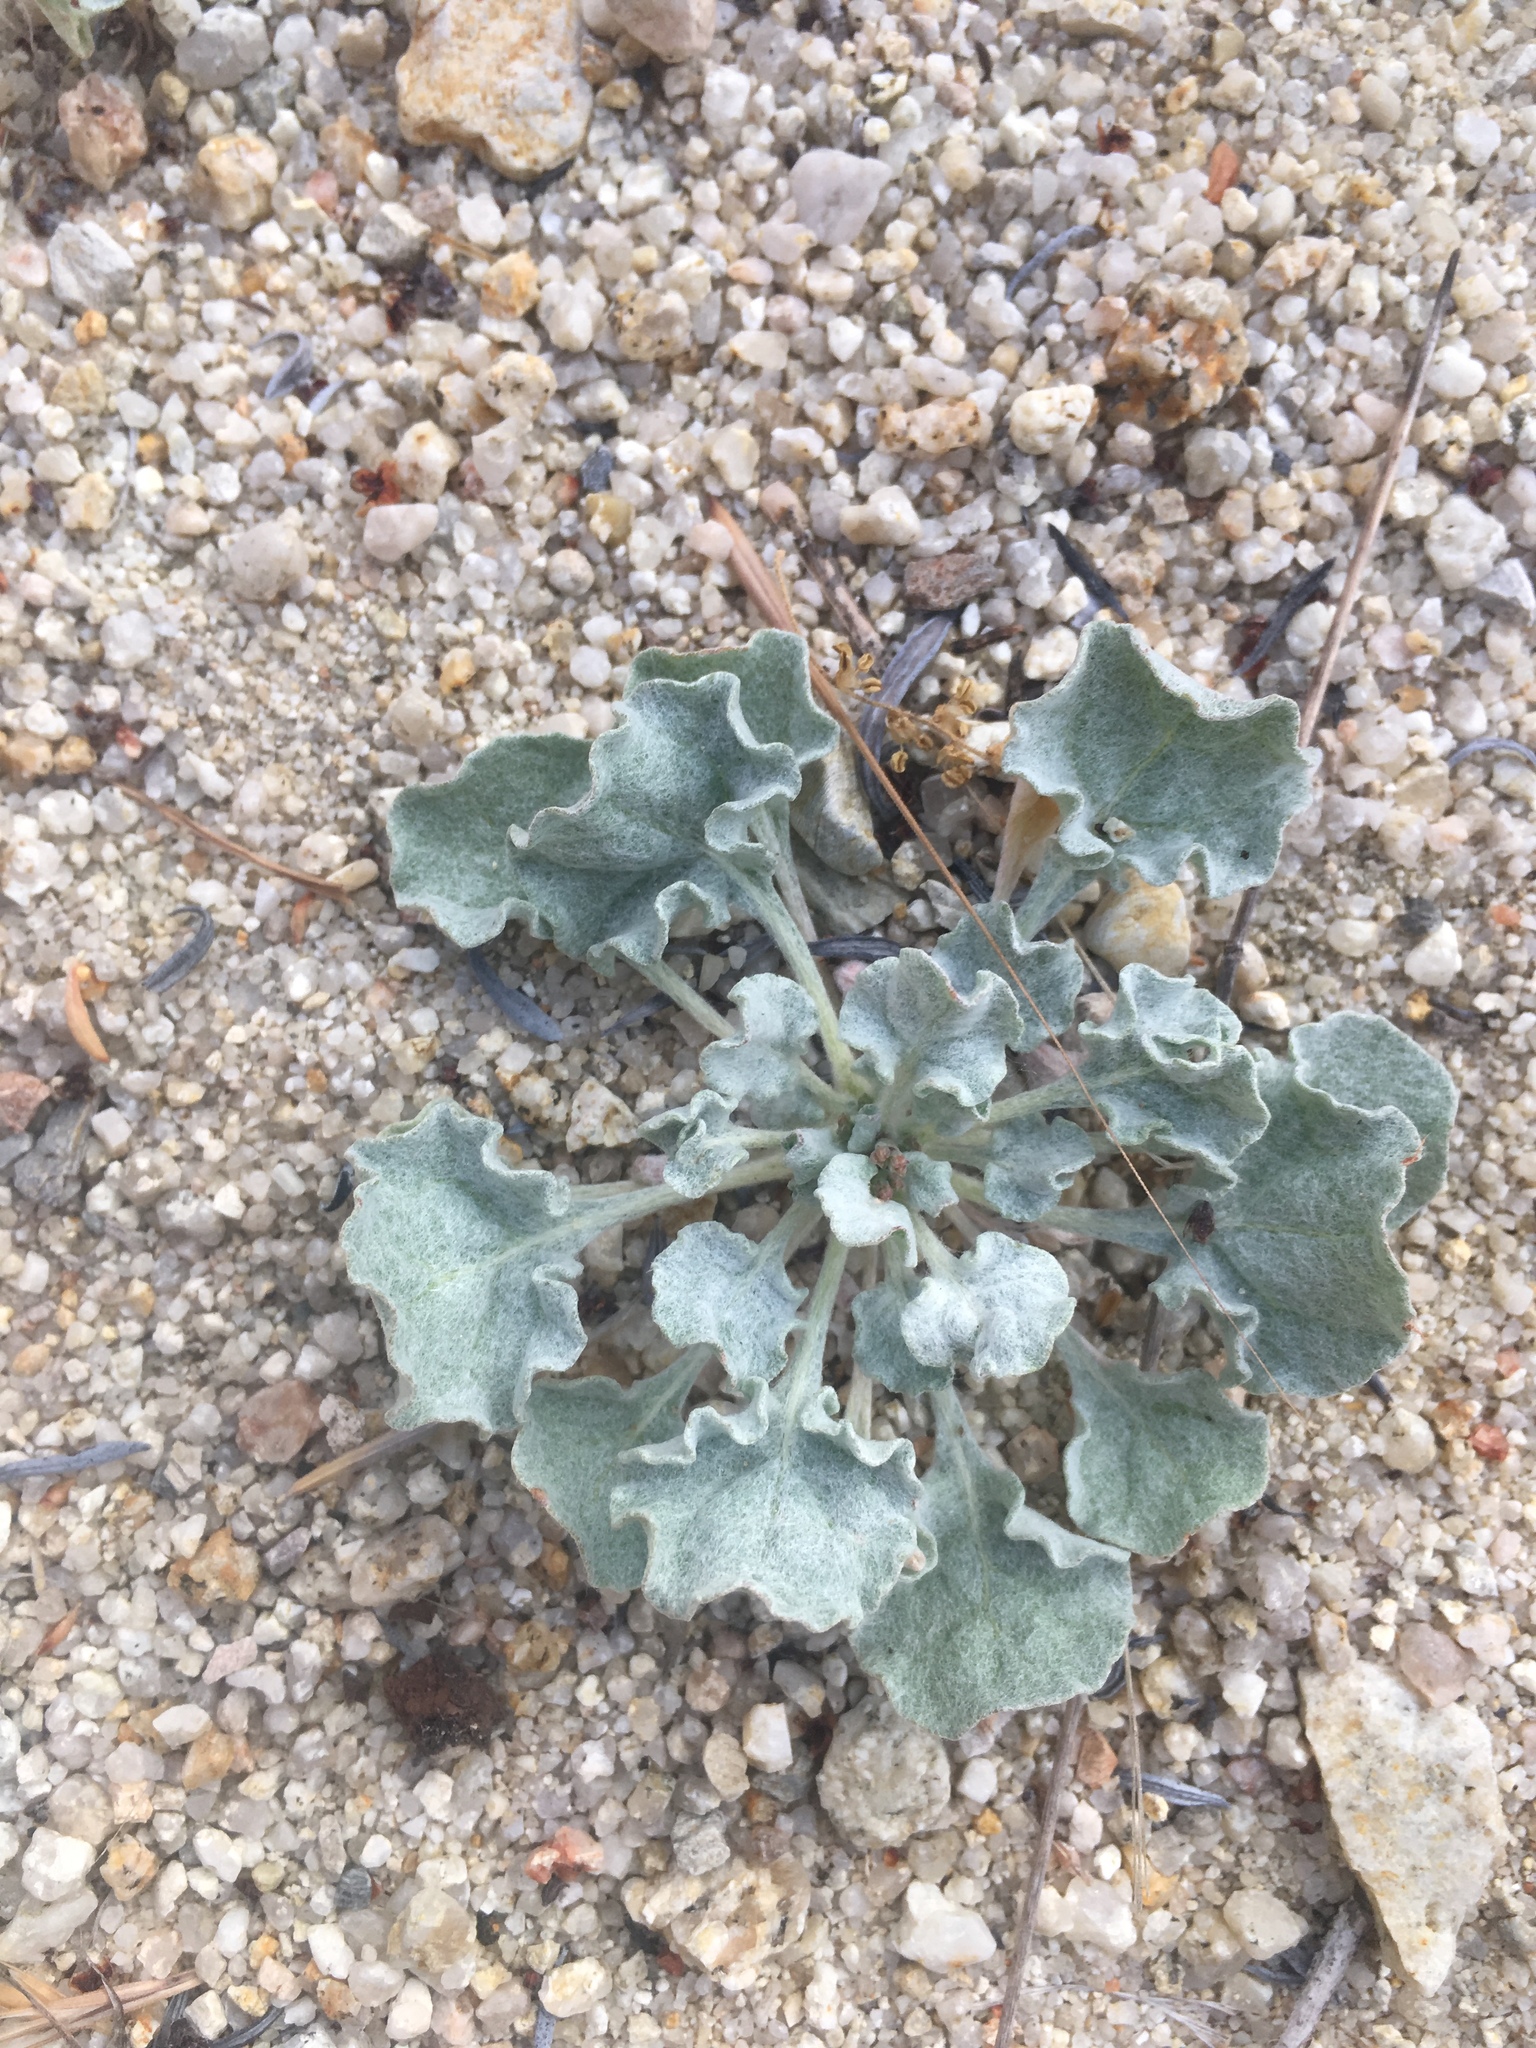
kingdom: Plantae
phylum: Tracheophyta
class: Magnoliopsida
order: Caryophyllales
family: Polygonaceae
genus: Eriogonum
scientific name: Eriogonum elegans
